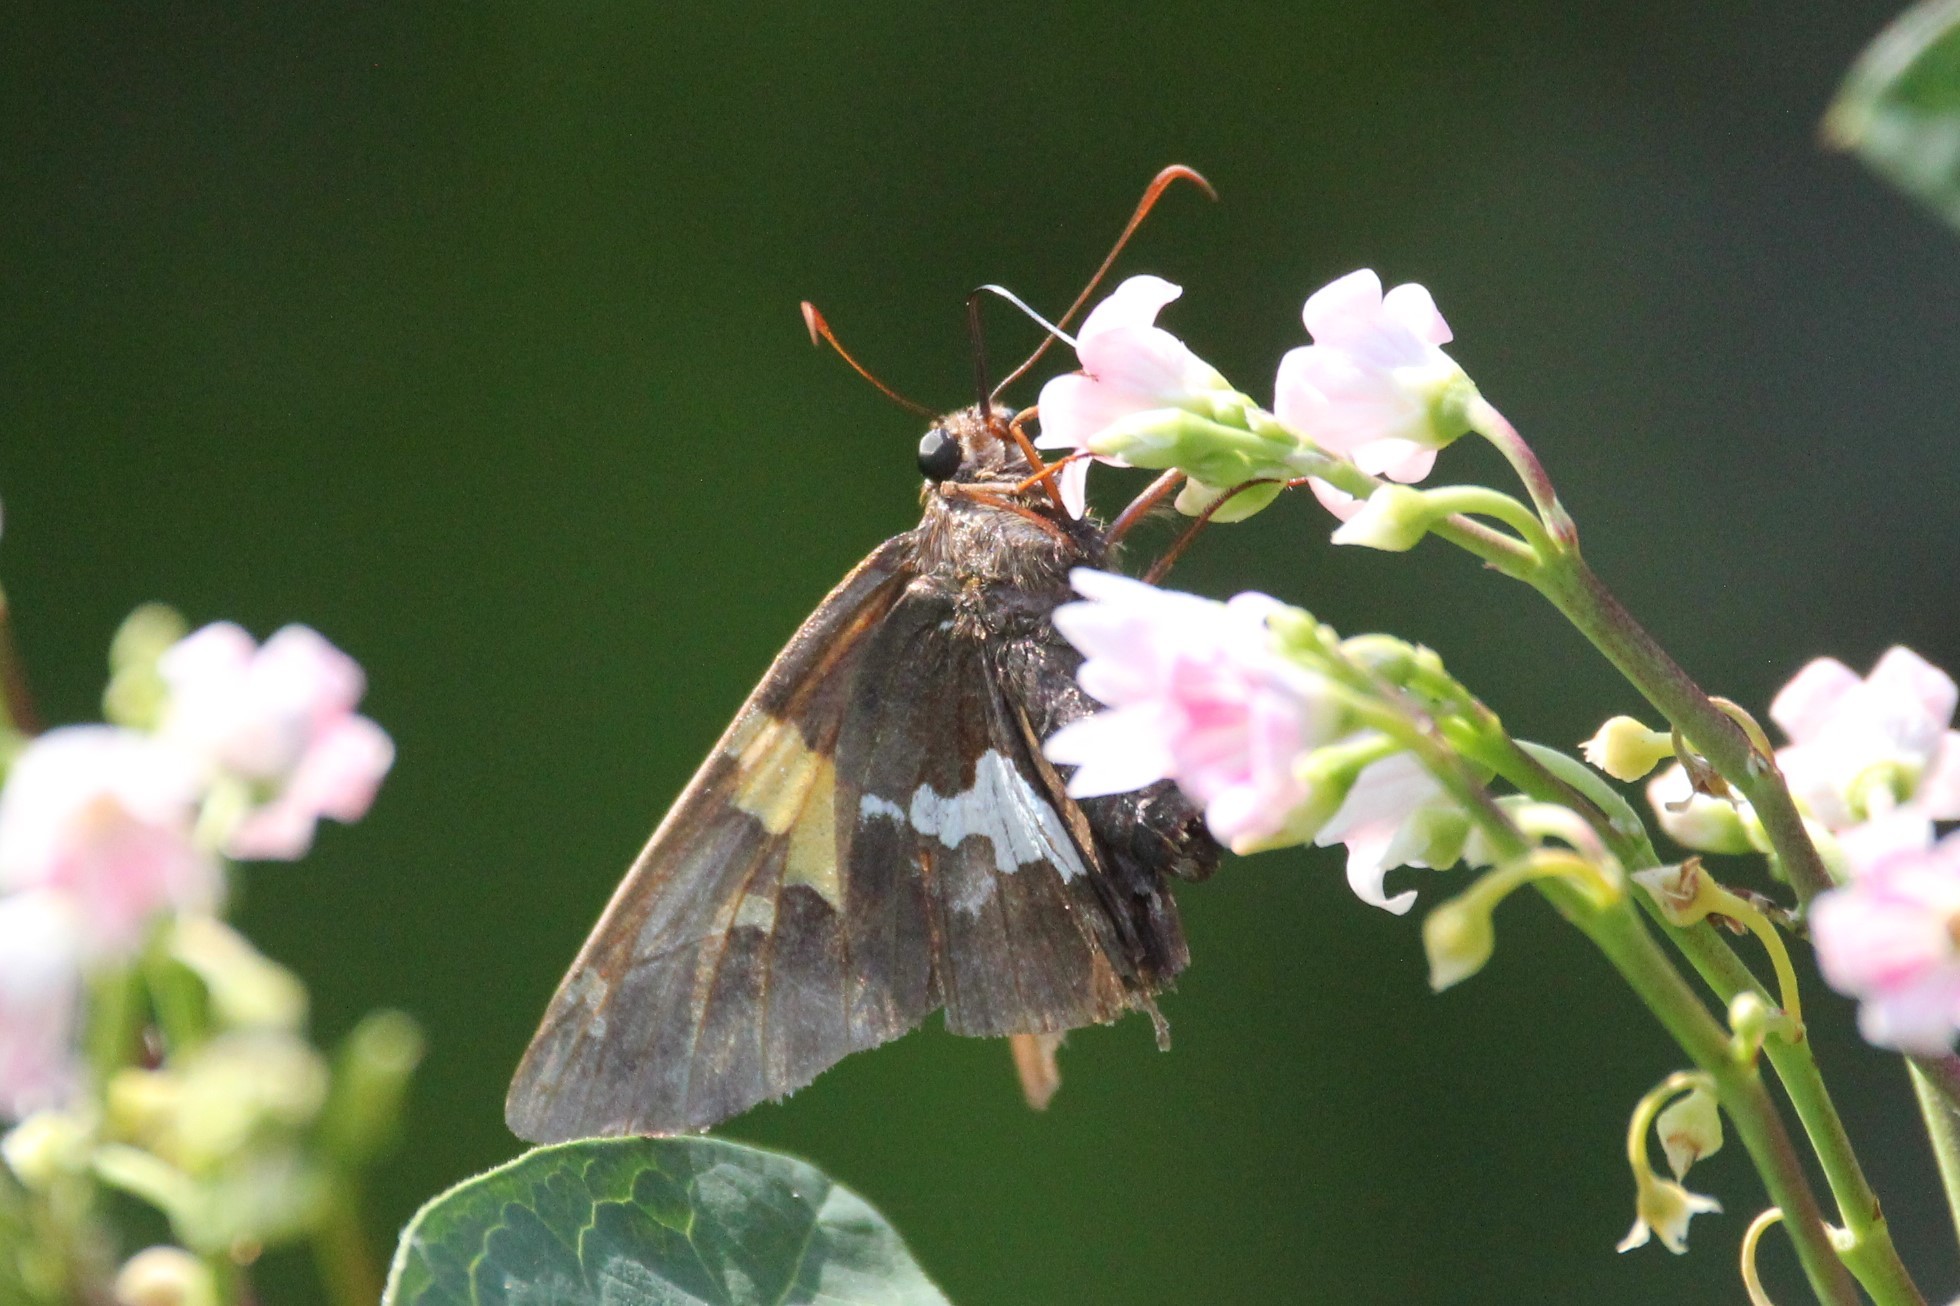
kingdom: Animalia
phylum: Arthropoda
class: Insecta
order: Lepidoptera
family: Hesperiidae
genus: Epargyreus
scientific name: Epargyreus clarus
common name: Silver-spotted skipper
